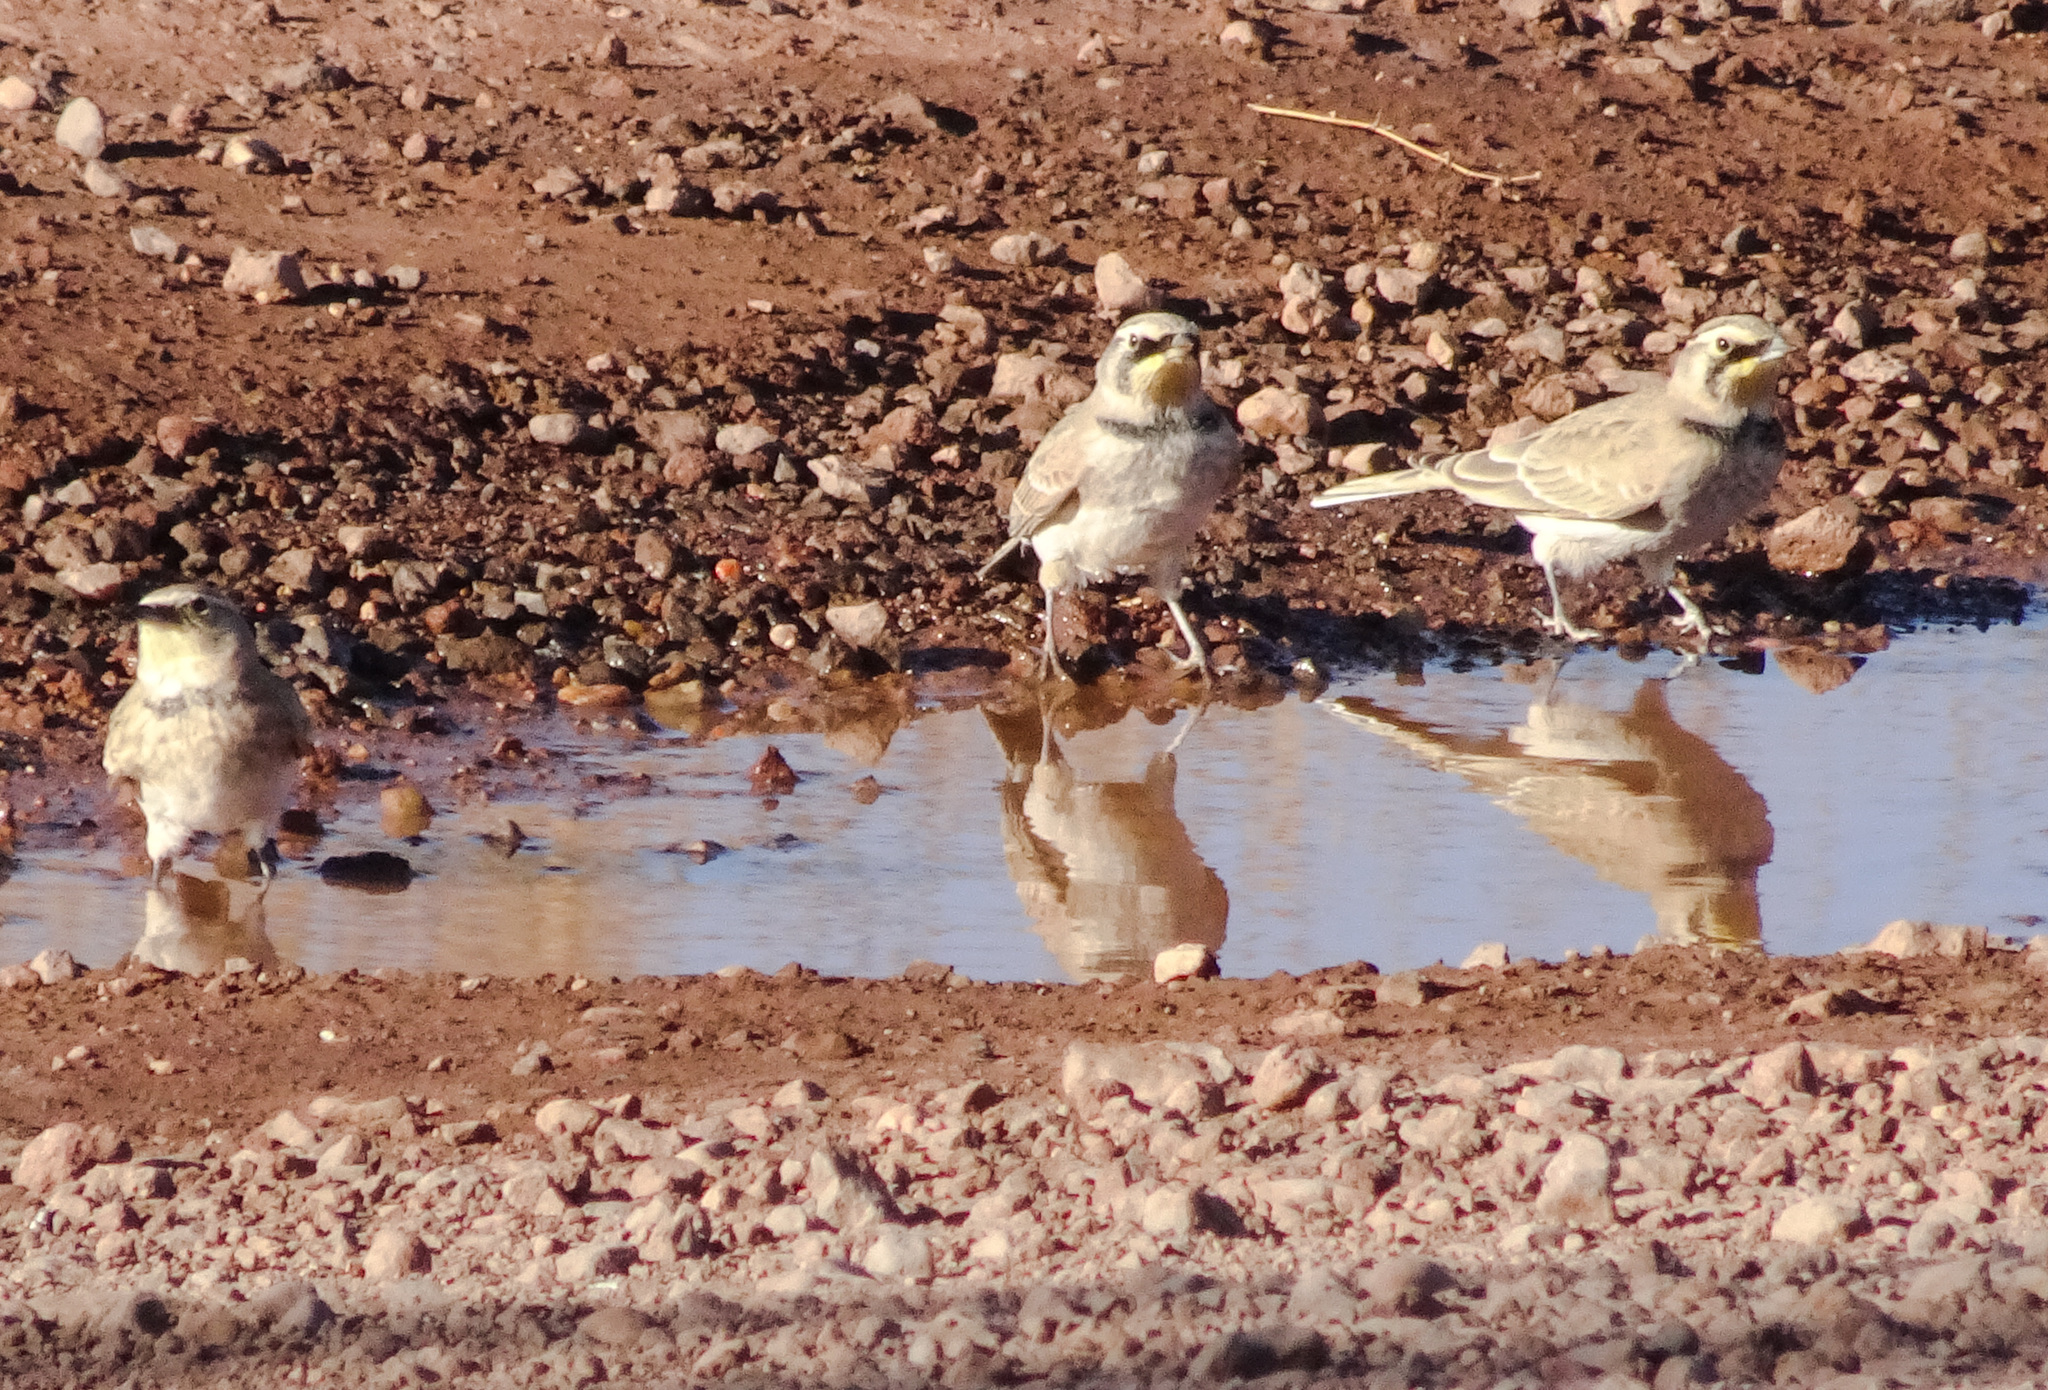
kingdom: Animalia
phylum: Chordata
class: Aves
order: Passeriformes
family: Alaudidae
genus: Eremophila
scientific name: Eremophila alpestris
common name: Horned lark
